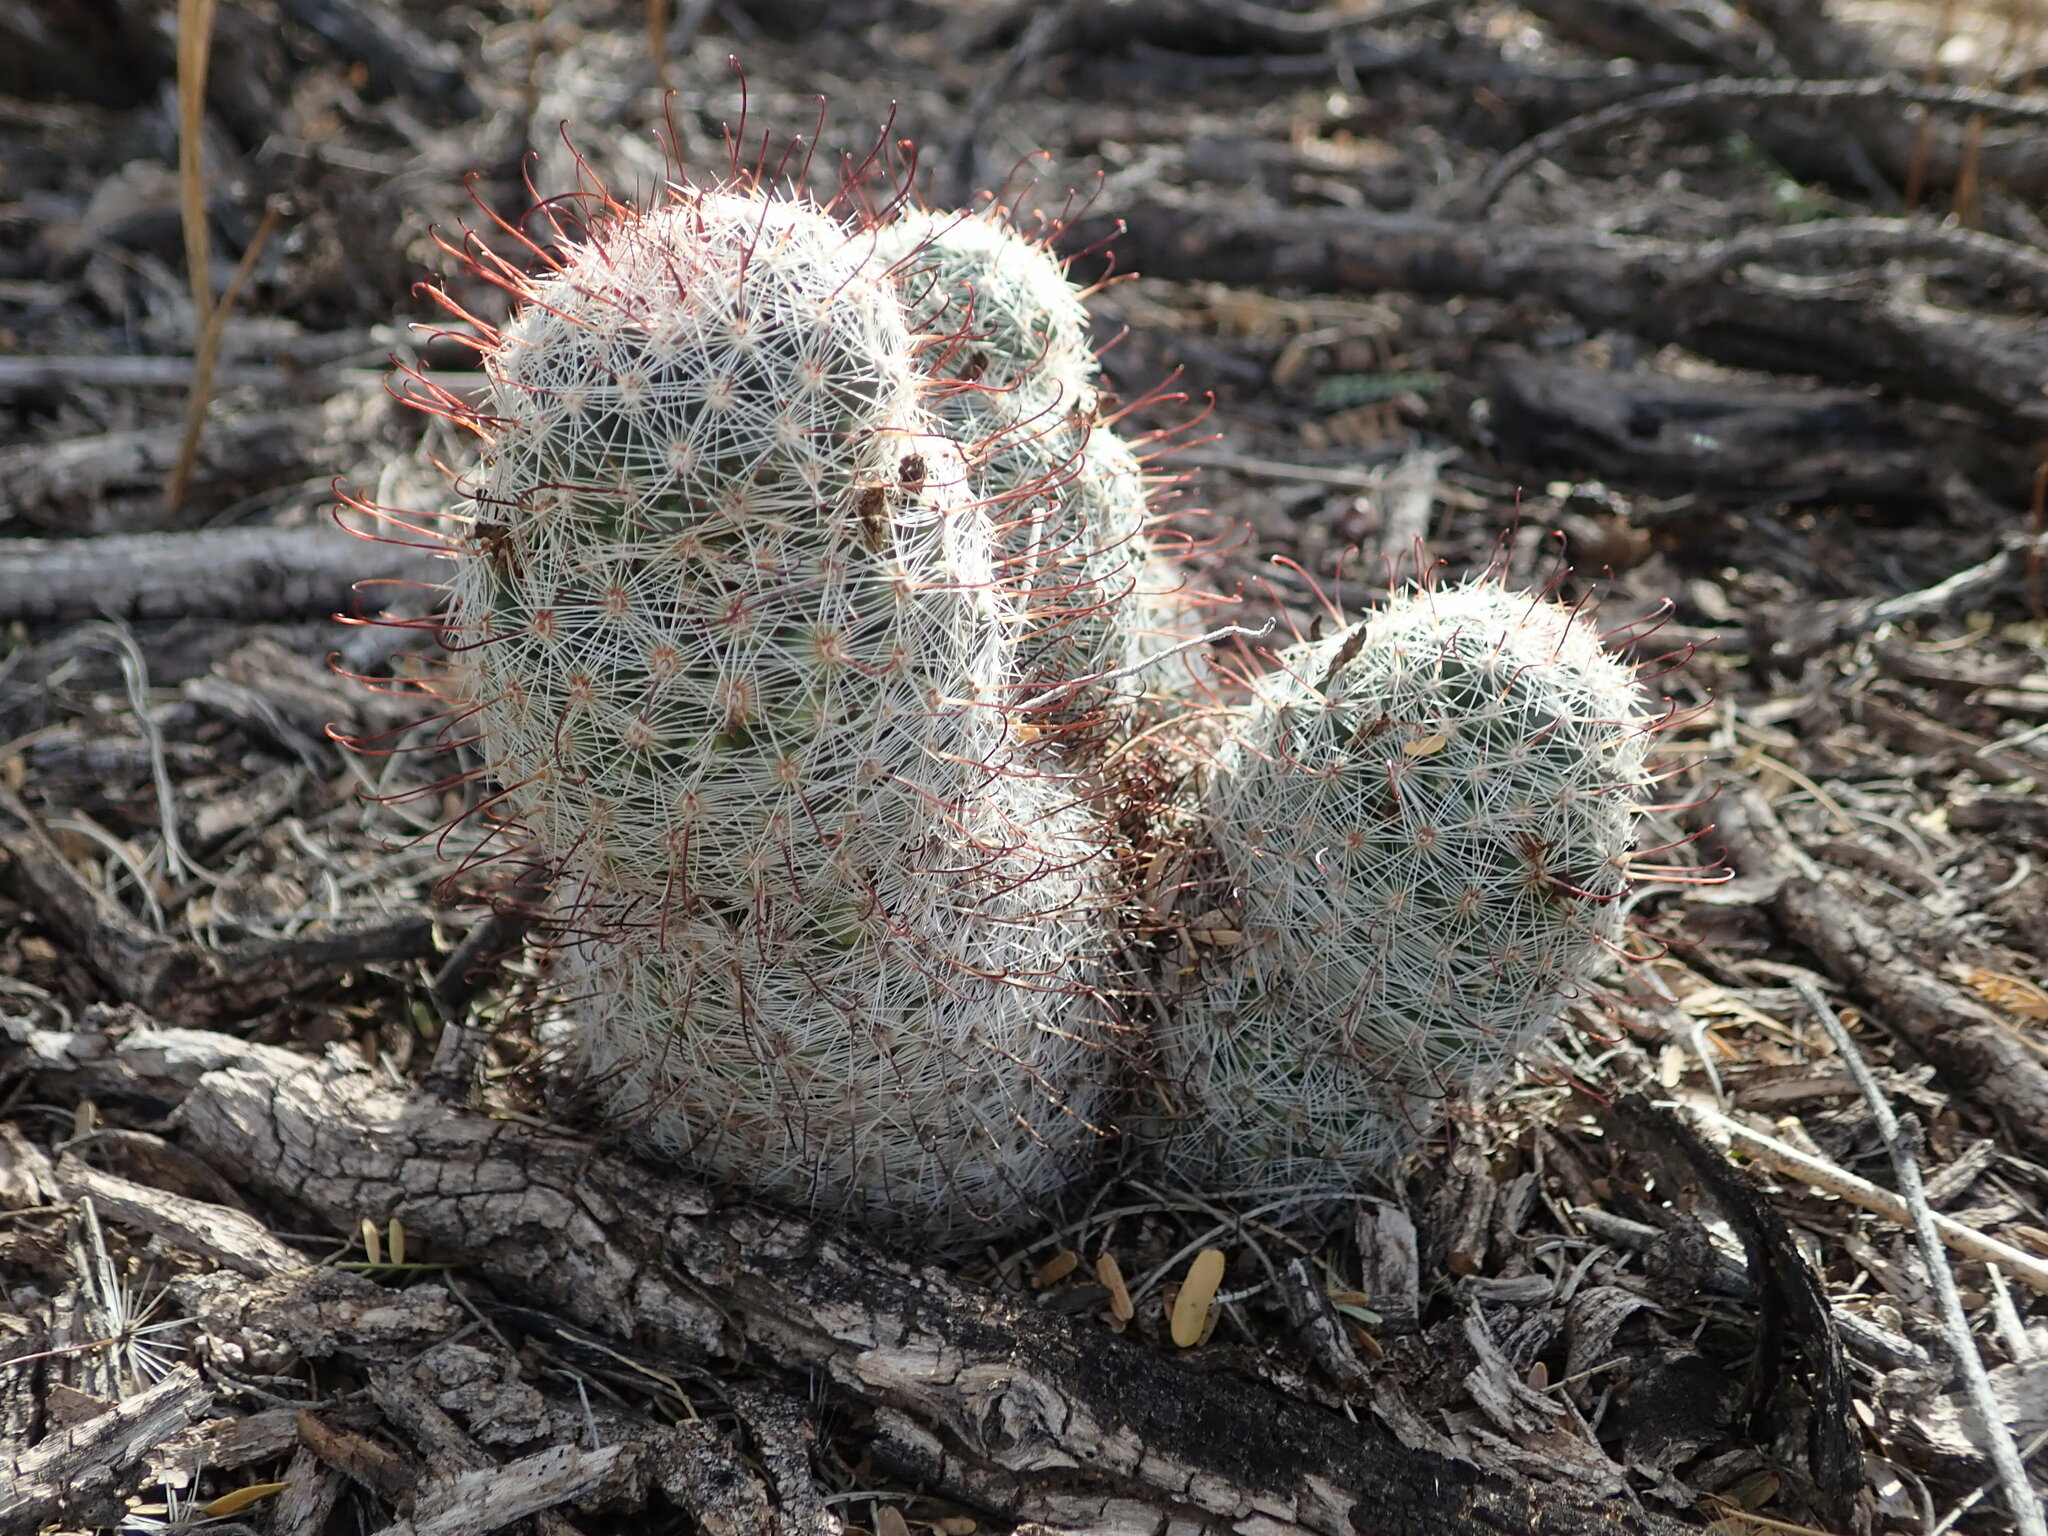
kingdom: Plantae
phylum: Tracheophyta
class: Magnoliopsida
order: Caryophyllales
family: Cactaceae
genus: Cochemiea
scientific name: Cochemiea grahamii
